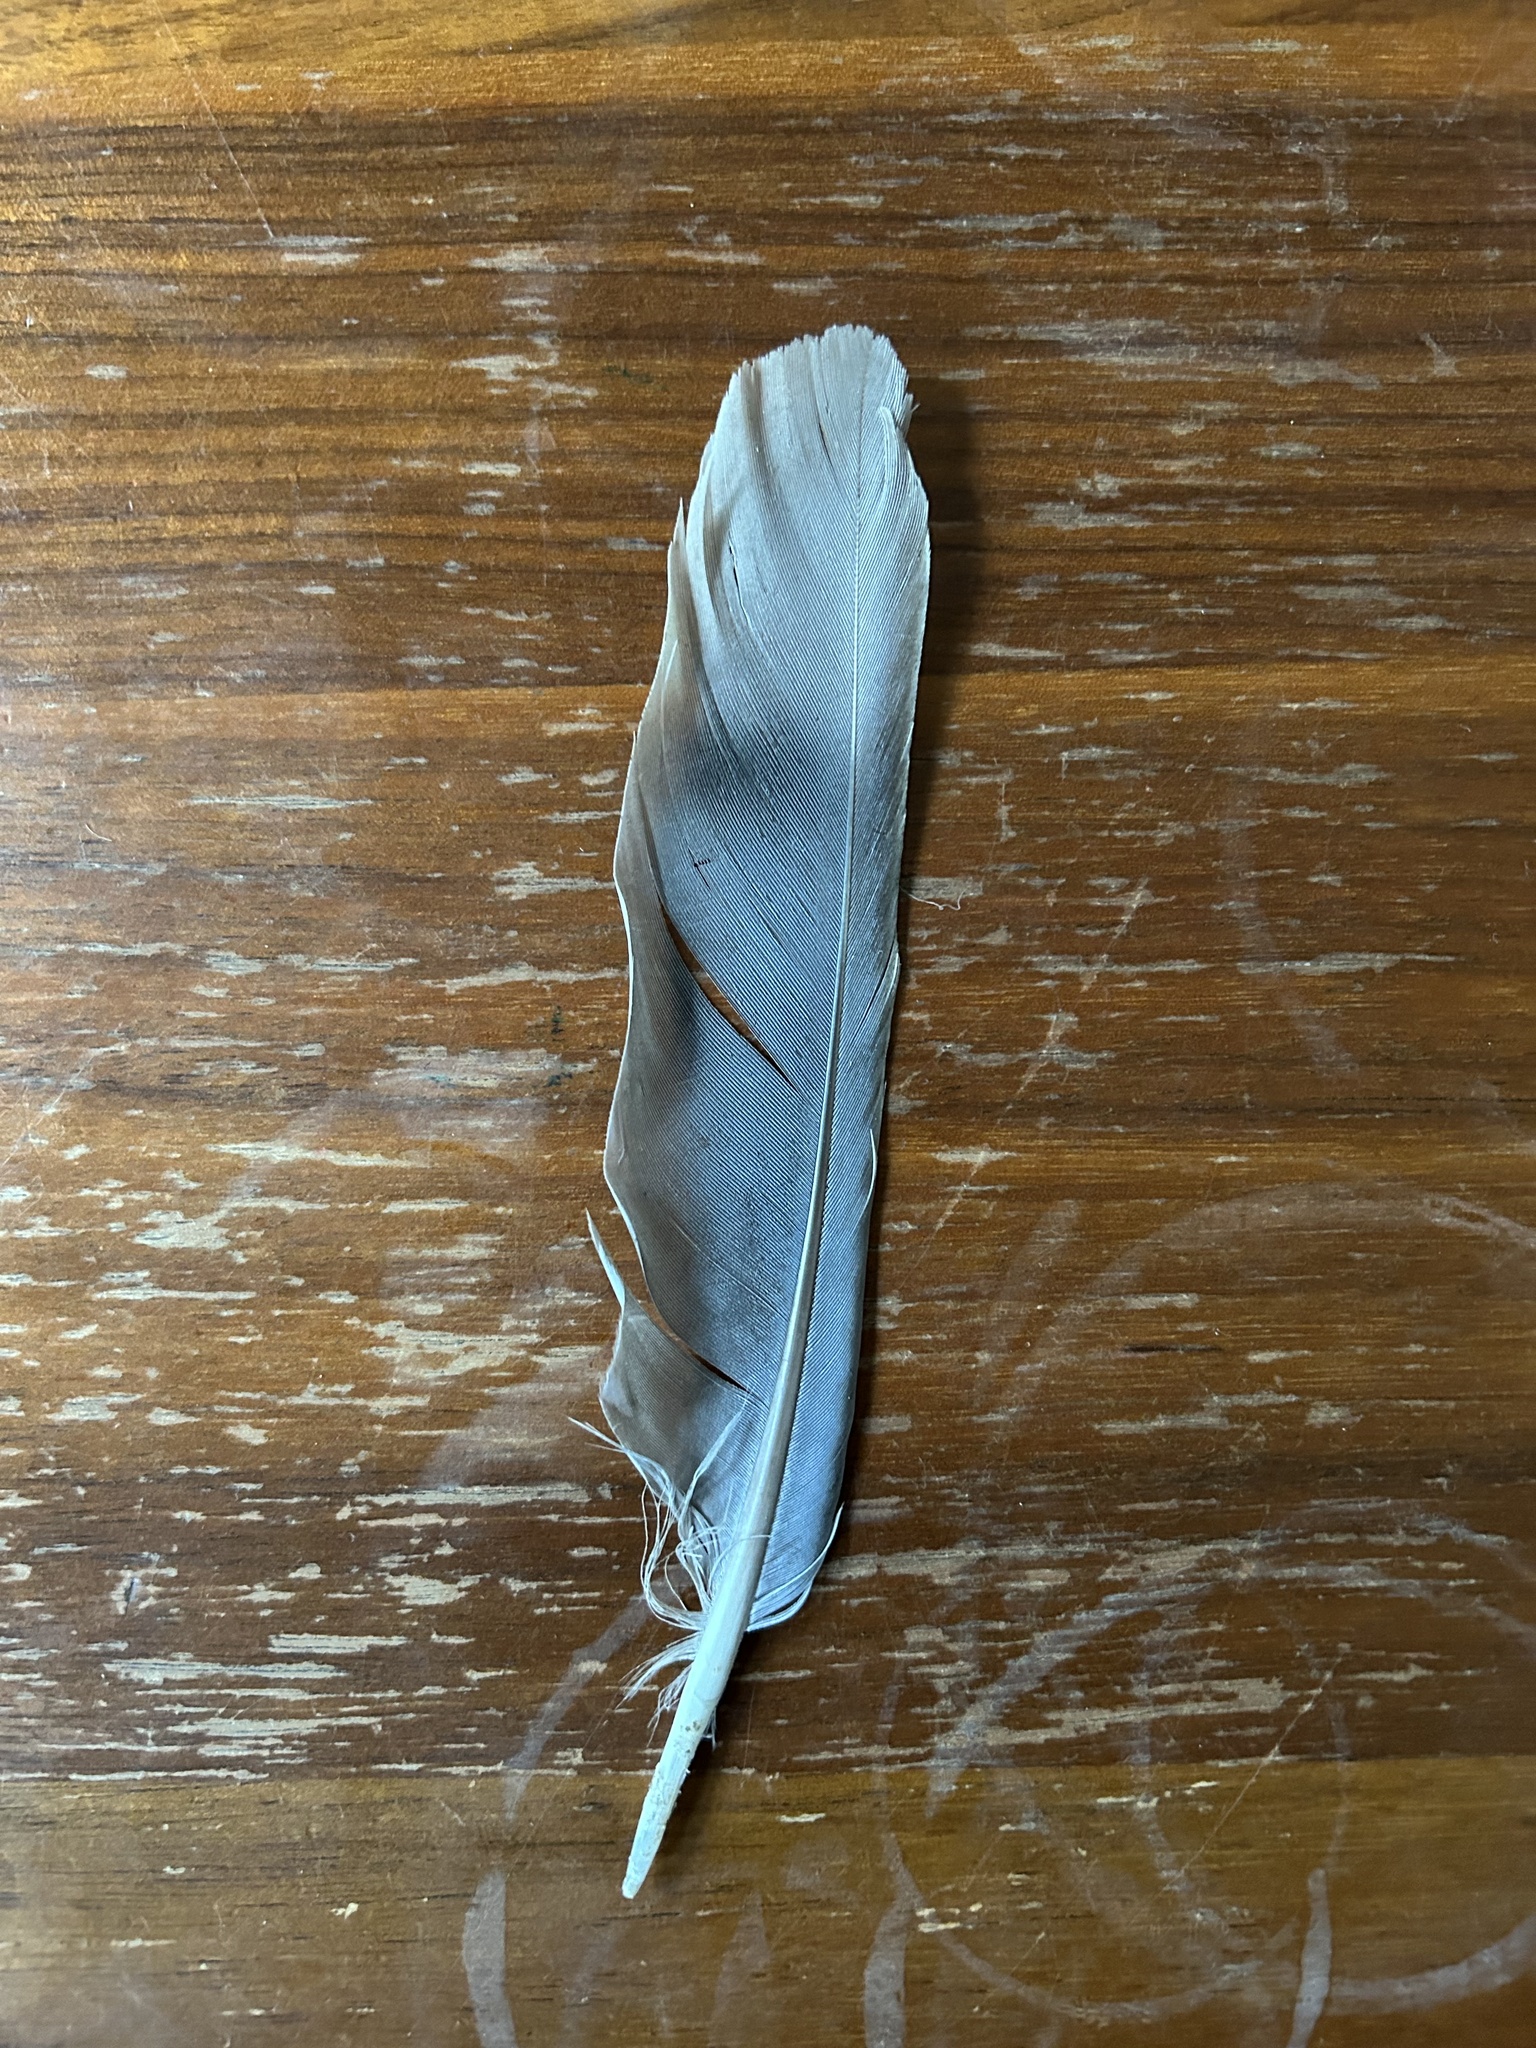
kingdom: Animalia
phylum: Chordata
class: Aves
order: Columbiformes
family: Columbidae
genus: Patagioenas
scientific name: Patagioenas fasciata
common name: Band-tailed pigeon
